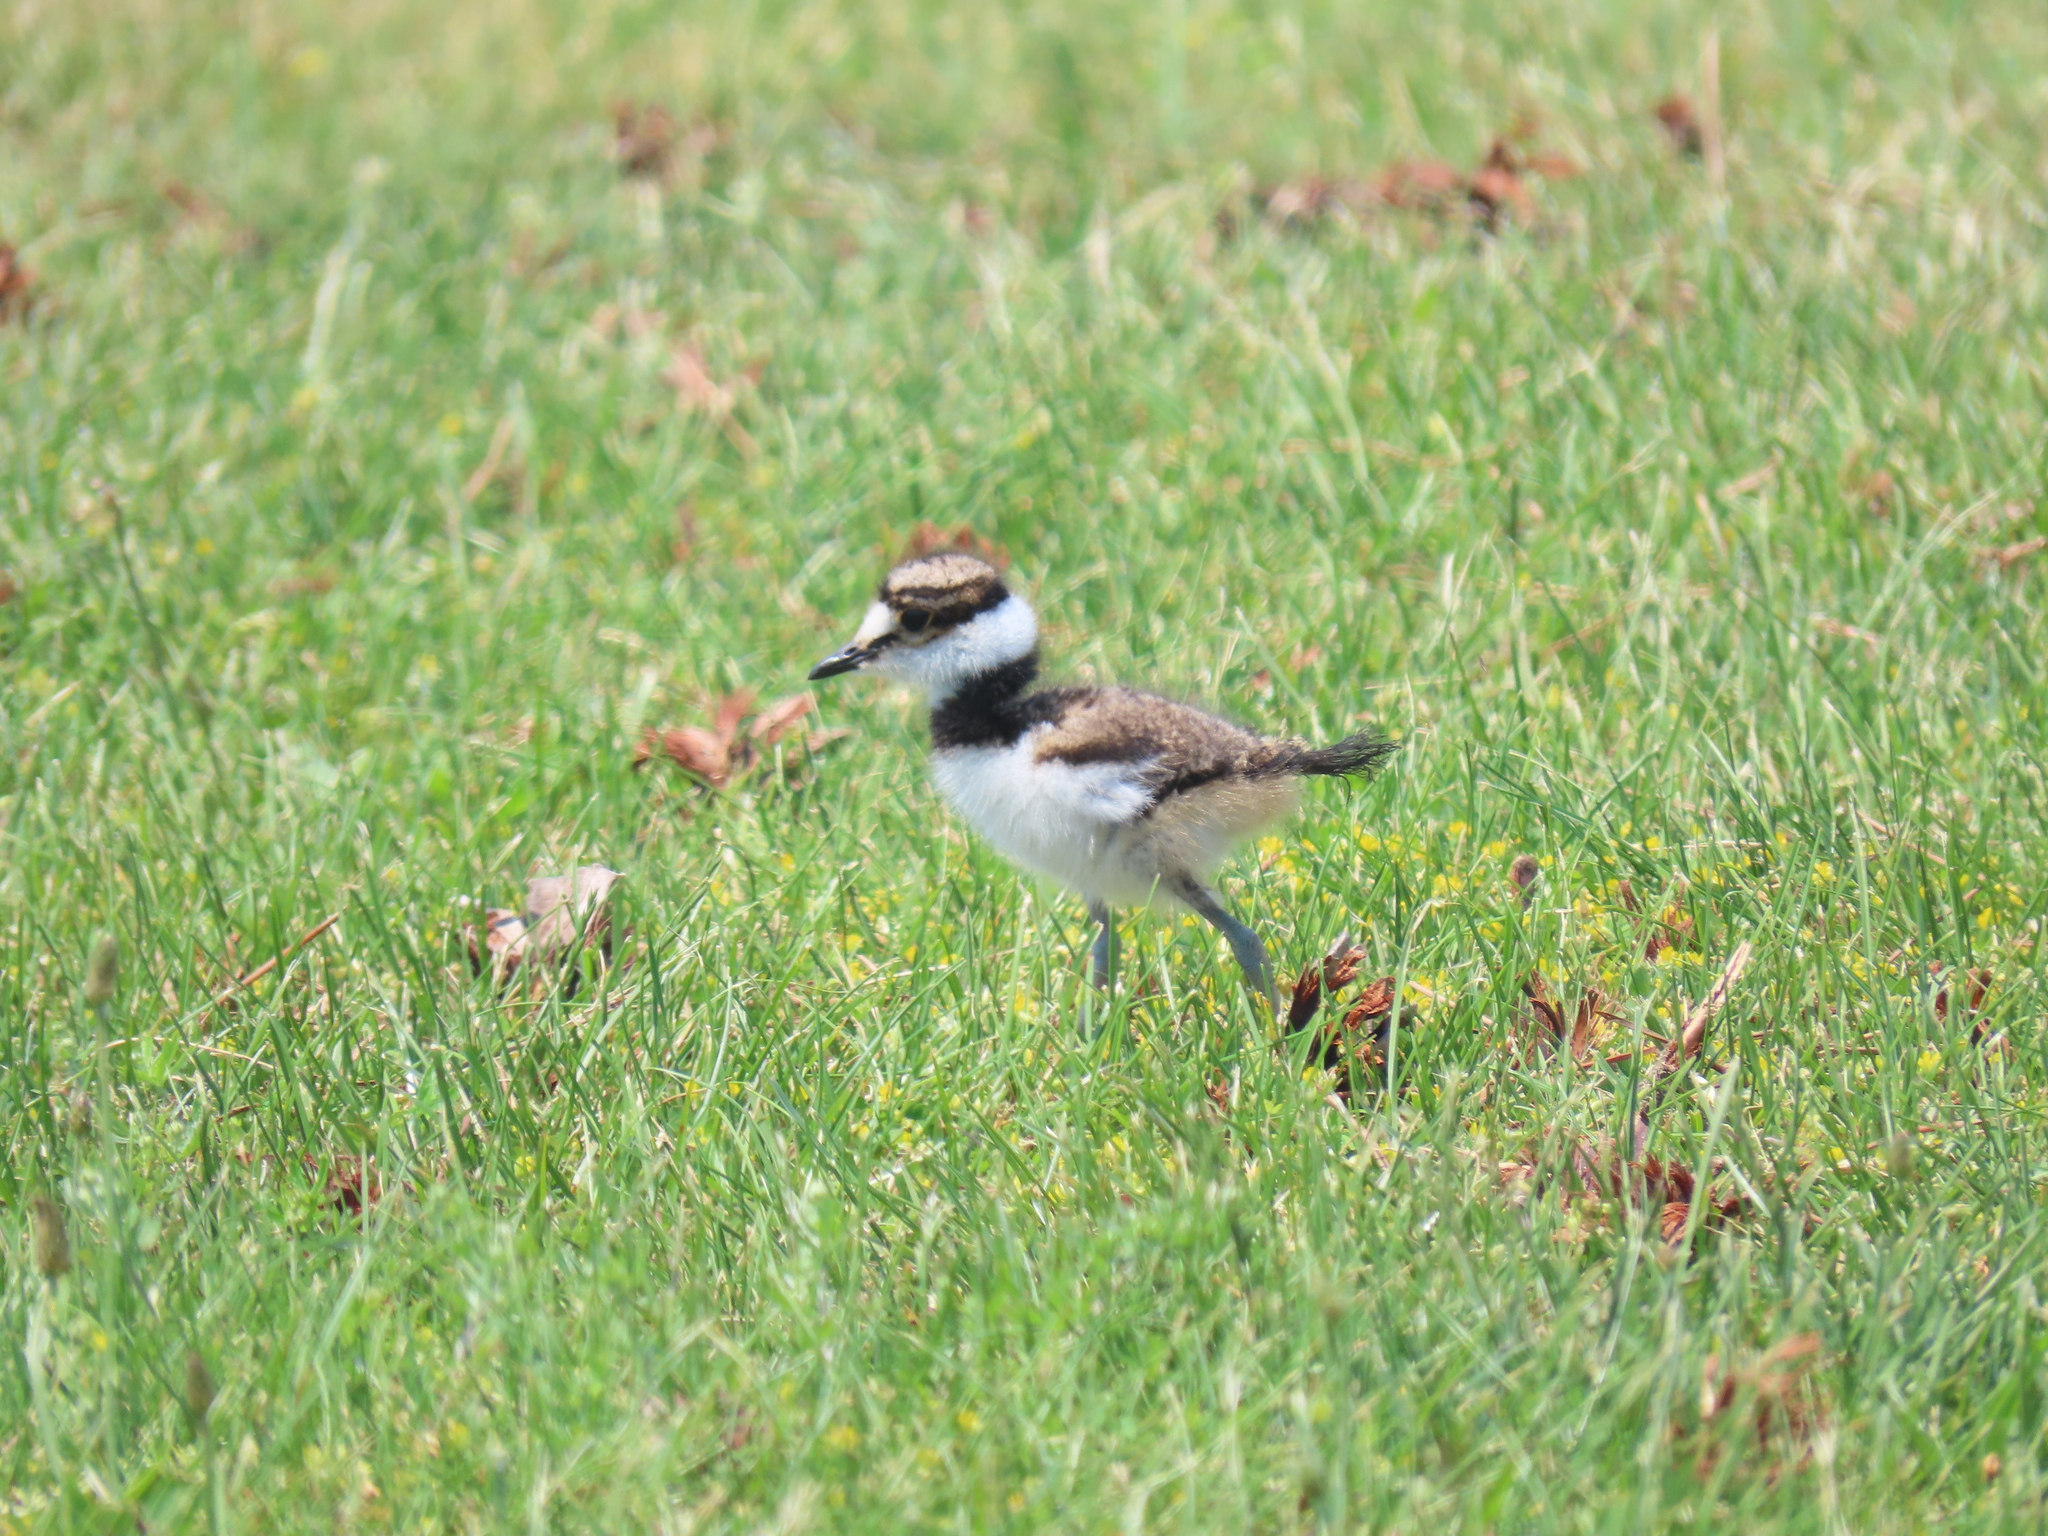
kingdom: Animalia
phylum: Chordata
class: Aves
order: Charadriiformes
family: Charadriidae
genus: Charadrius
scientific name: Charadrius vociferus
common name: Killdeer
